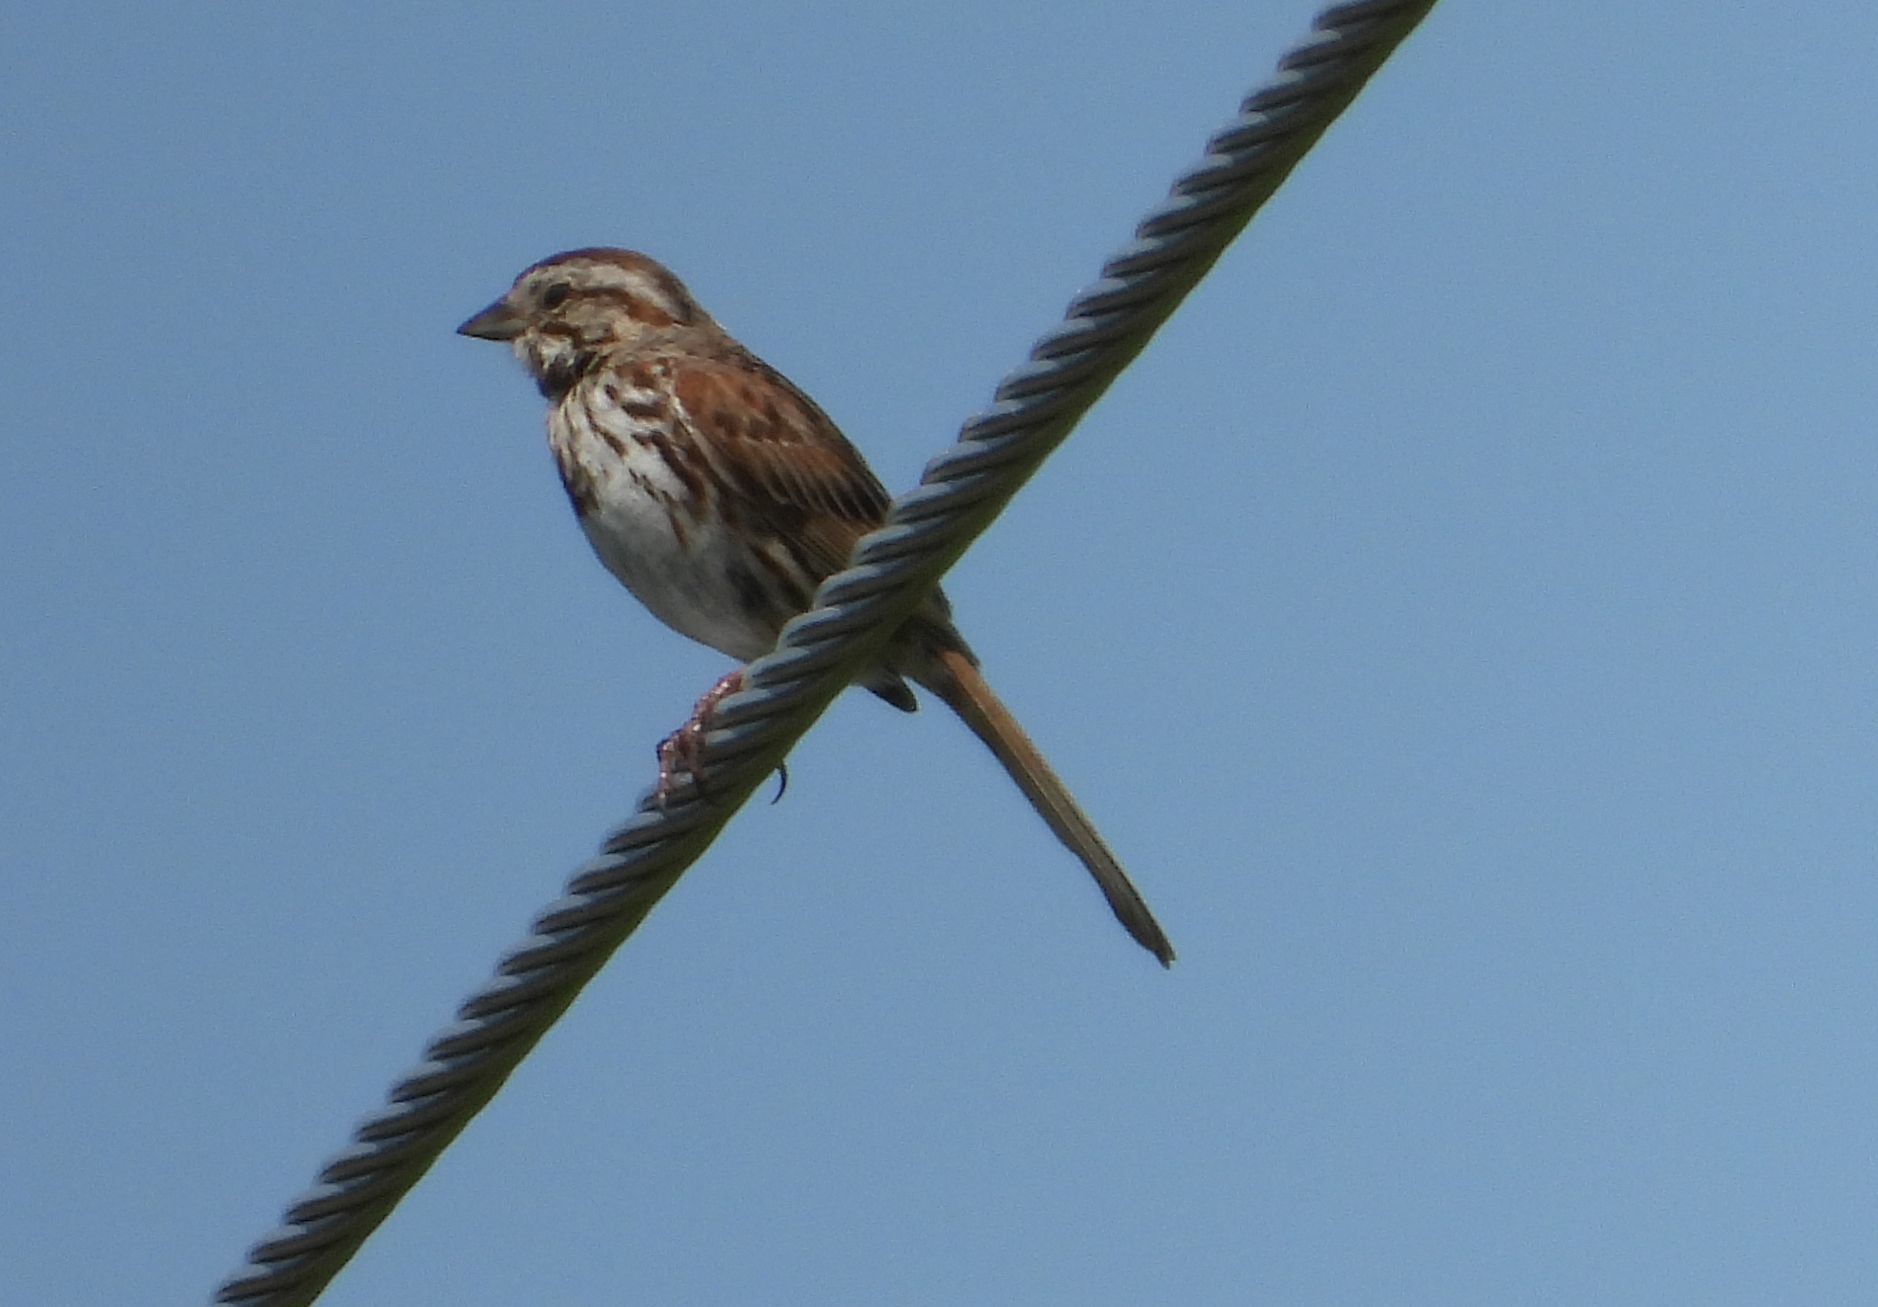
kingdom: Animalia
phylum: Chordata
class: Aves
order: Passeriformes
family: Passerellidae
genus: Melospiza
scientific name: Melospiza melodia
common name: Song sparrow
